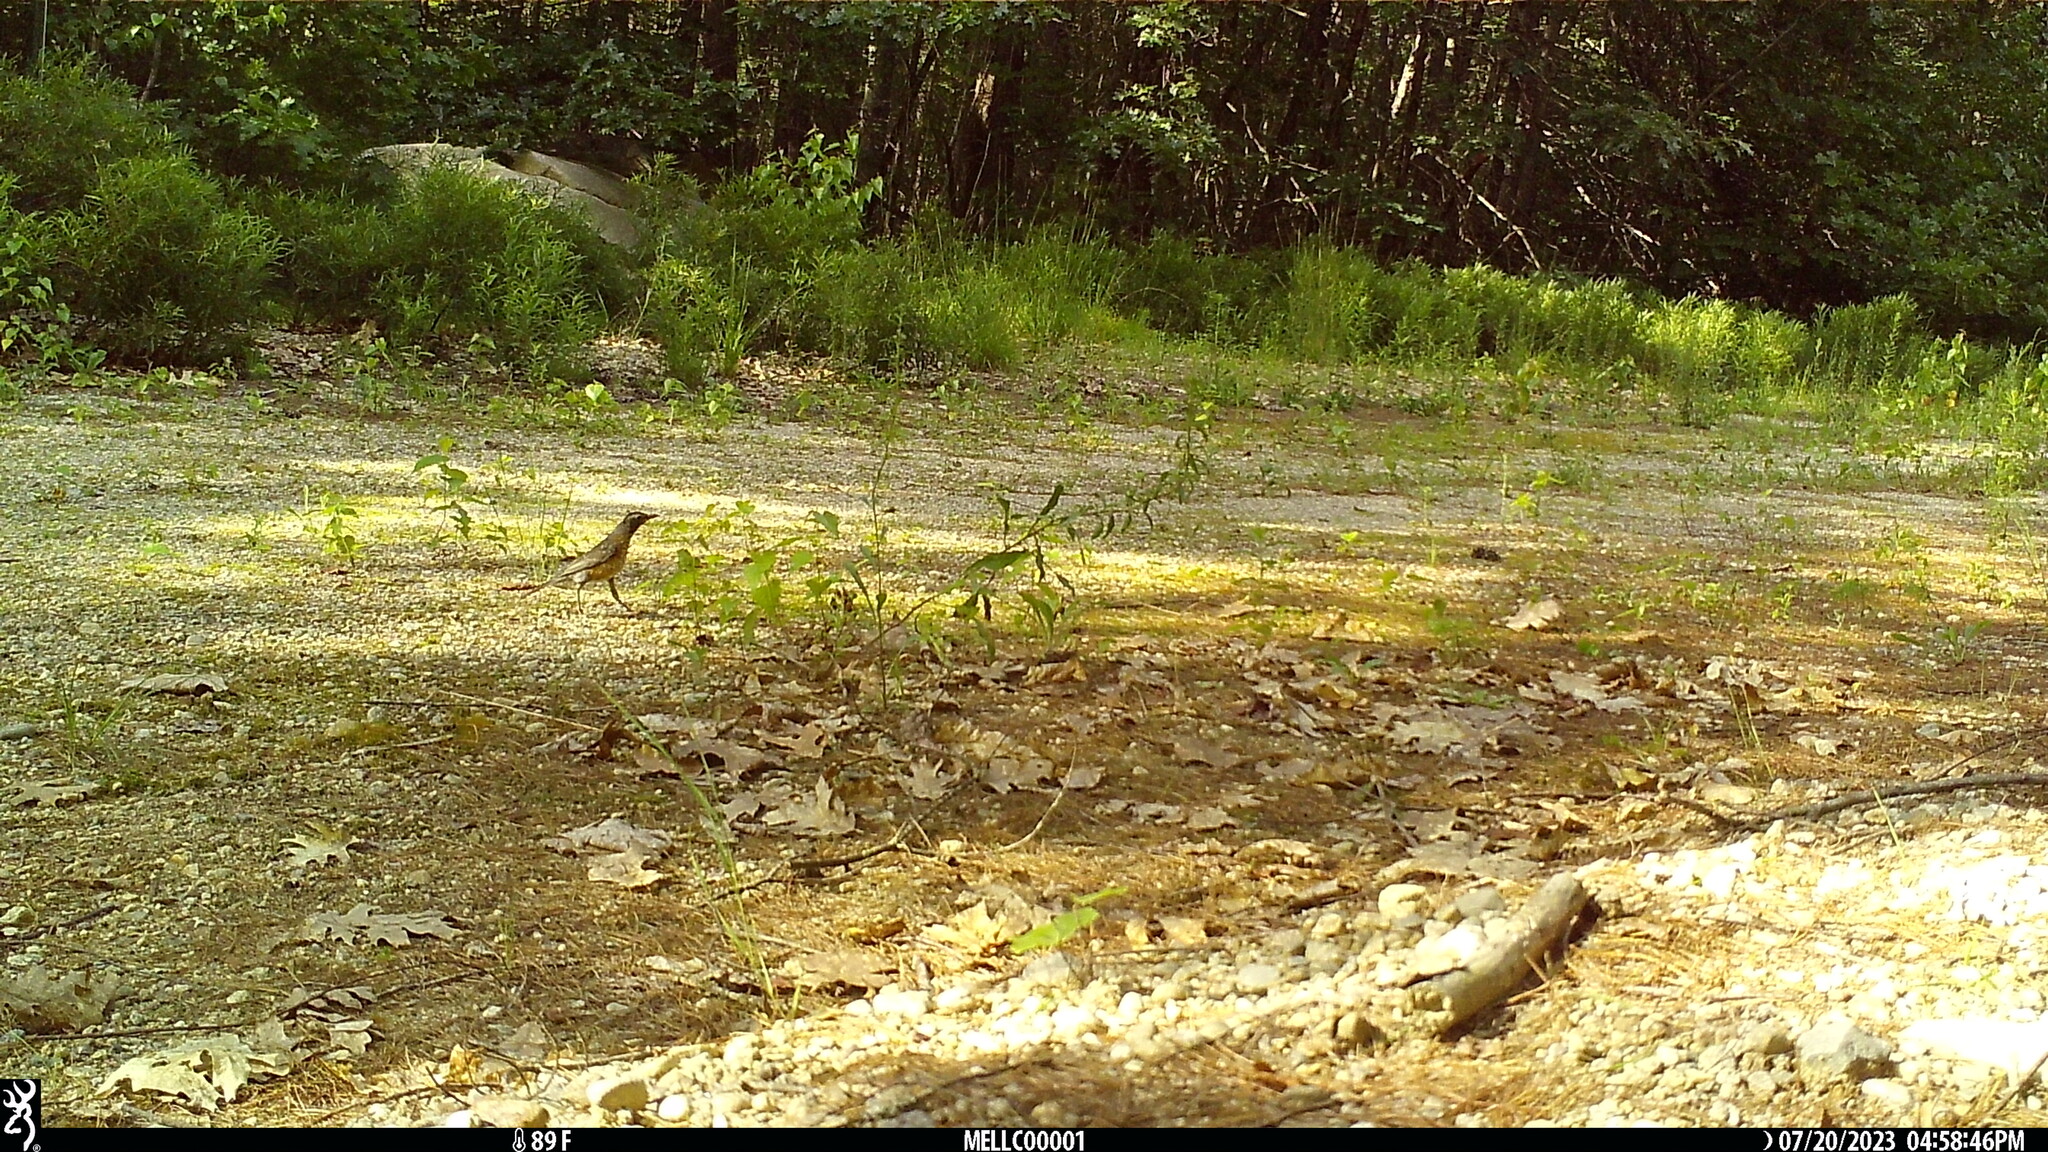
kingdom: Animalia
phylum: Chordata
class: Aves
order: Passeriformes
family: Turdidae
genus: Turdus
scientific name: Turdus migratorius
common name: American robin
